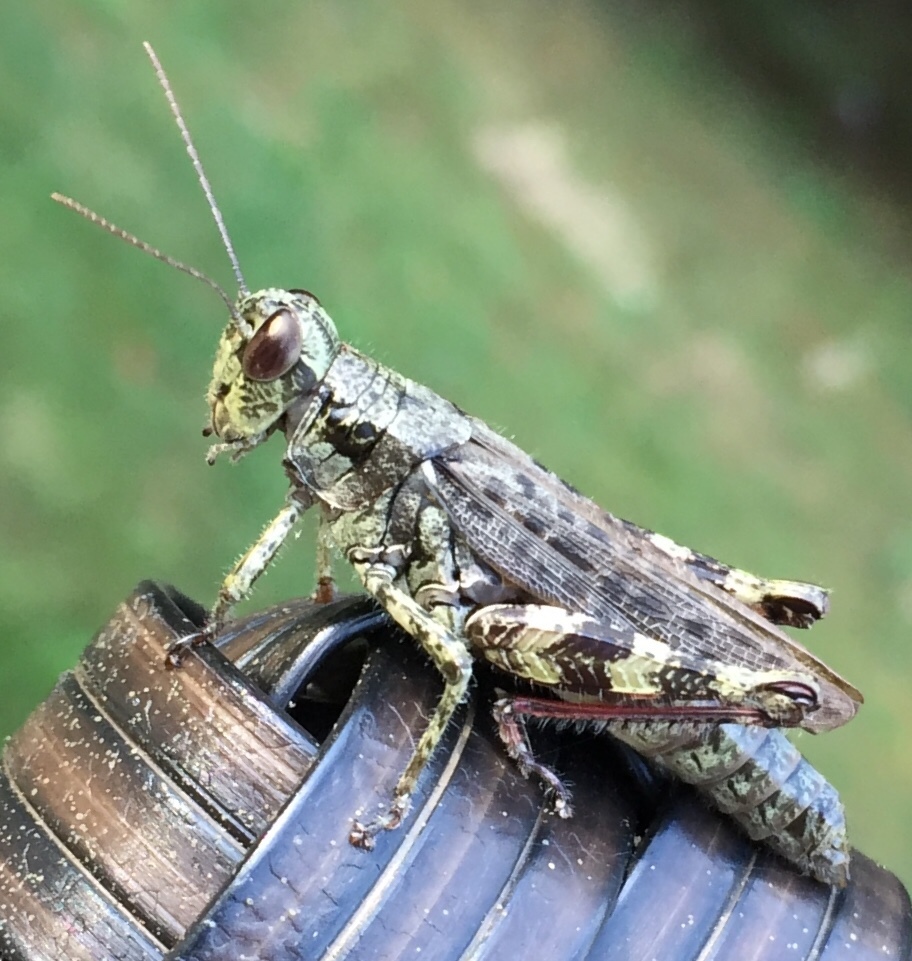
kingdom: Animalia
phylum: Arthropoda
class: Insecta
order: Orthoptera
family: Acrididae
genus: Melanoplus
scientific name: Melanoplus punctulatus
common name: Pine-tree spur-throat grasshopper
